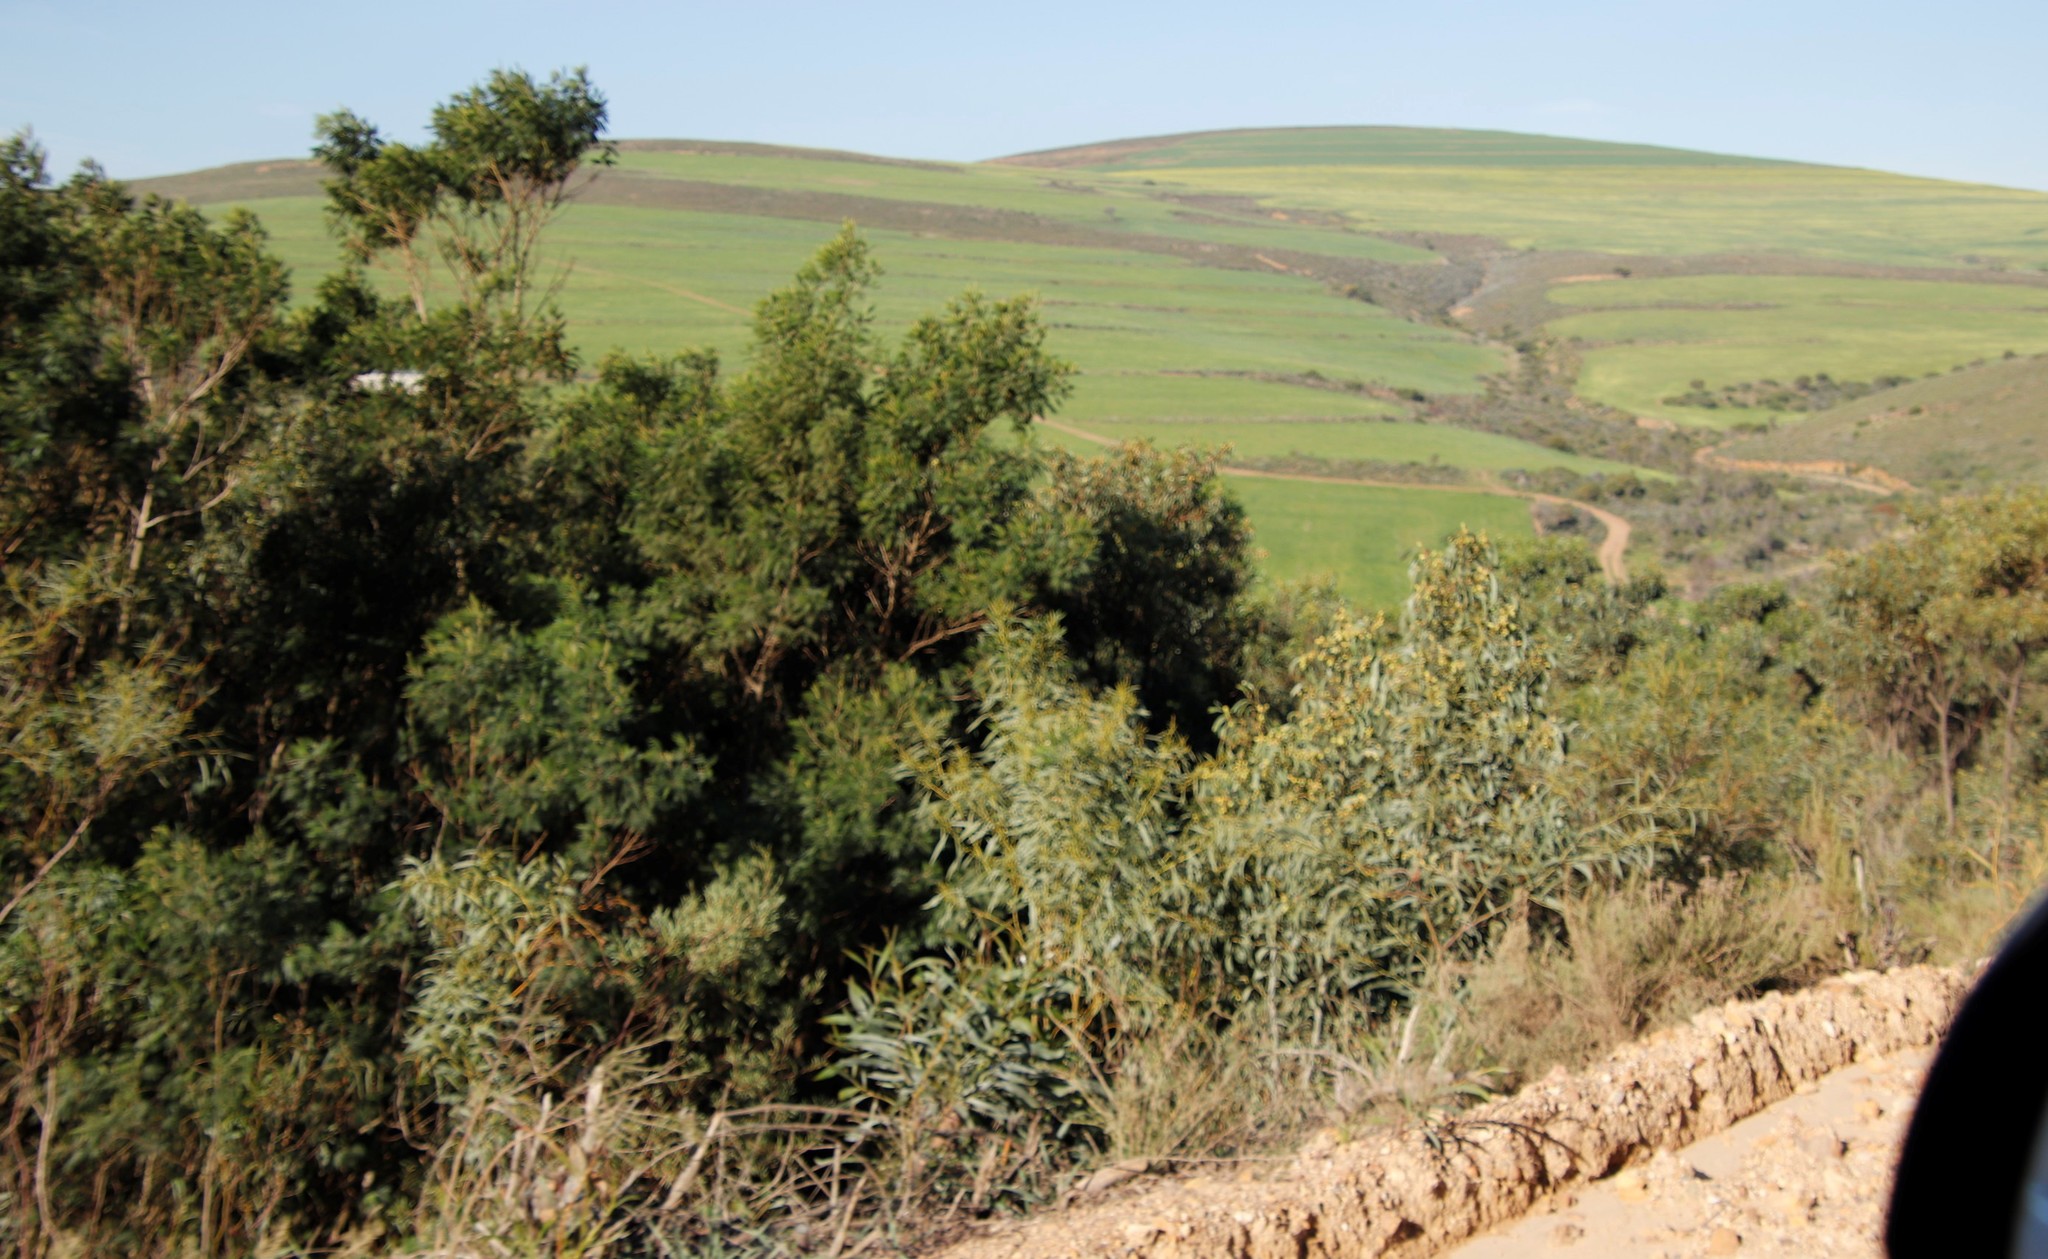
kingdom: Plantae
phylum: Tracheophyta
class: Magnoliopsida
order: Fabales
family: Fabaceae
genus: Acacia
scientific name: Acacia pycnantha
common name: Golden wattle
